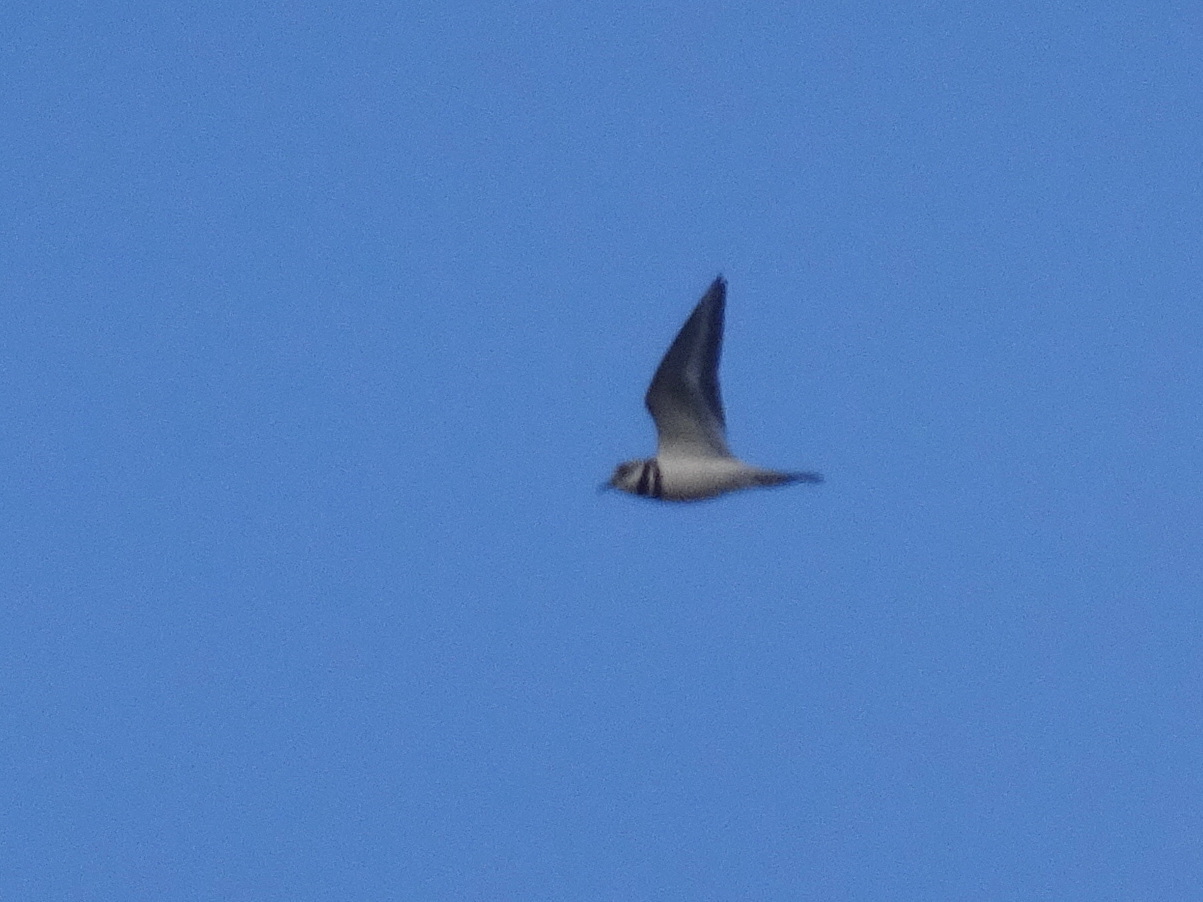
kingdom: Animalia
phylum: Chordata
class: Aves
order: Charadriiformes
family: Charadriidae
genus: Charadrius
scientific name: Charadrius vociferus
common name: Killdeer
